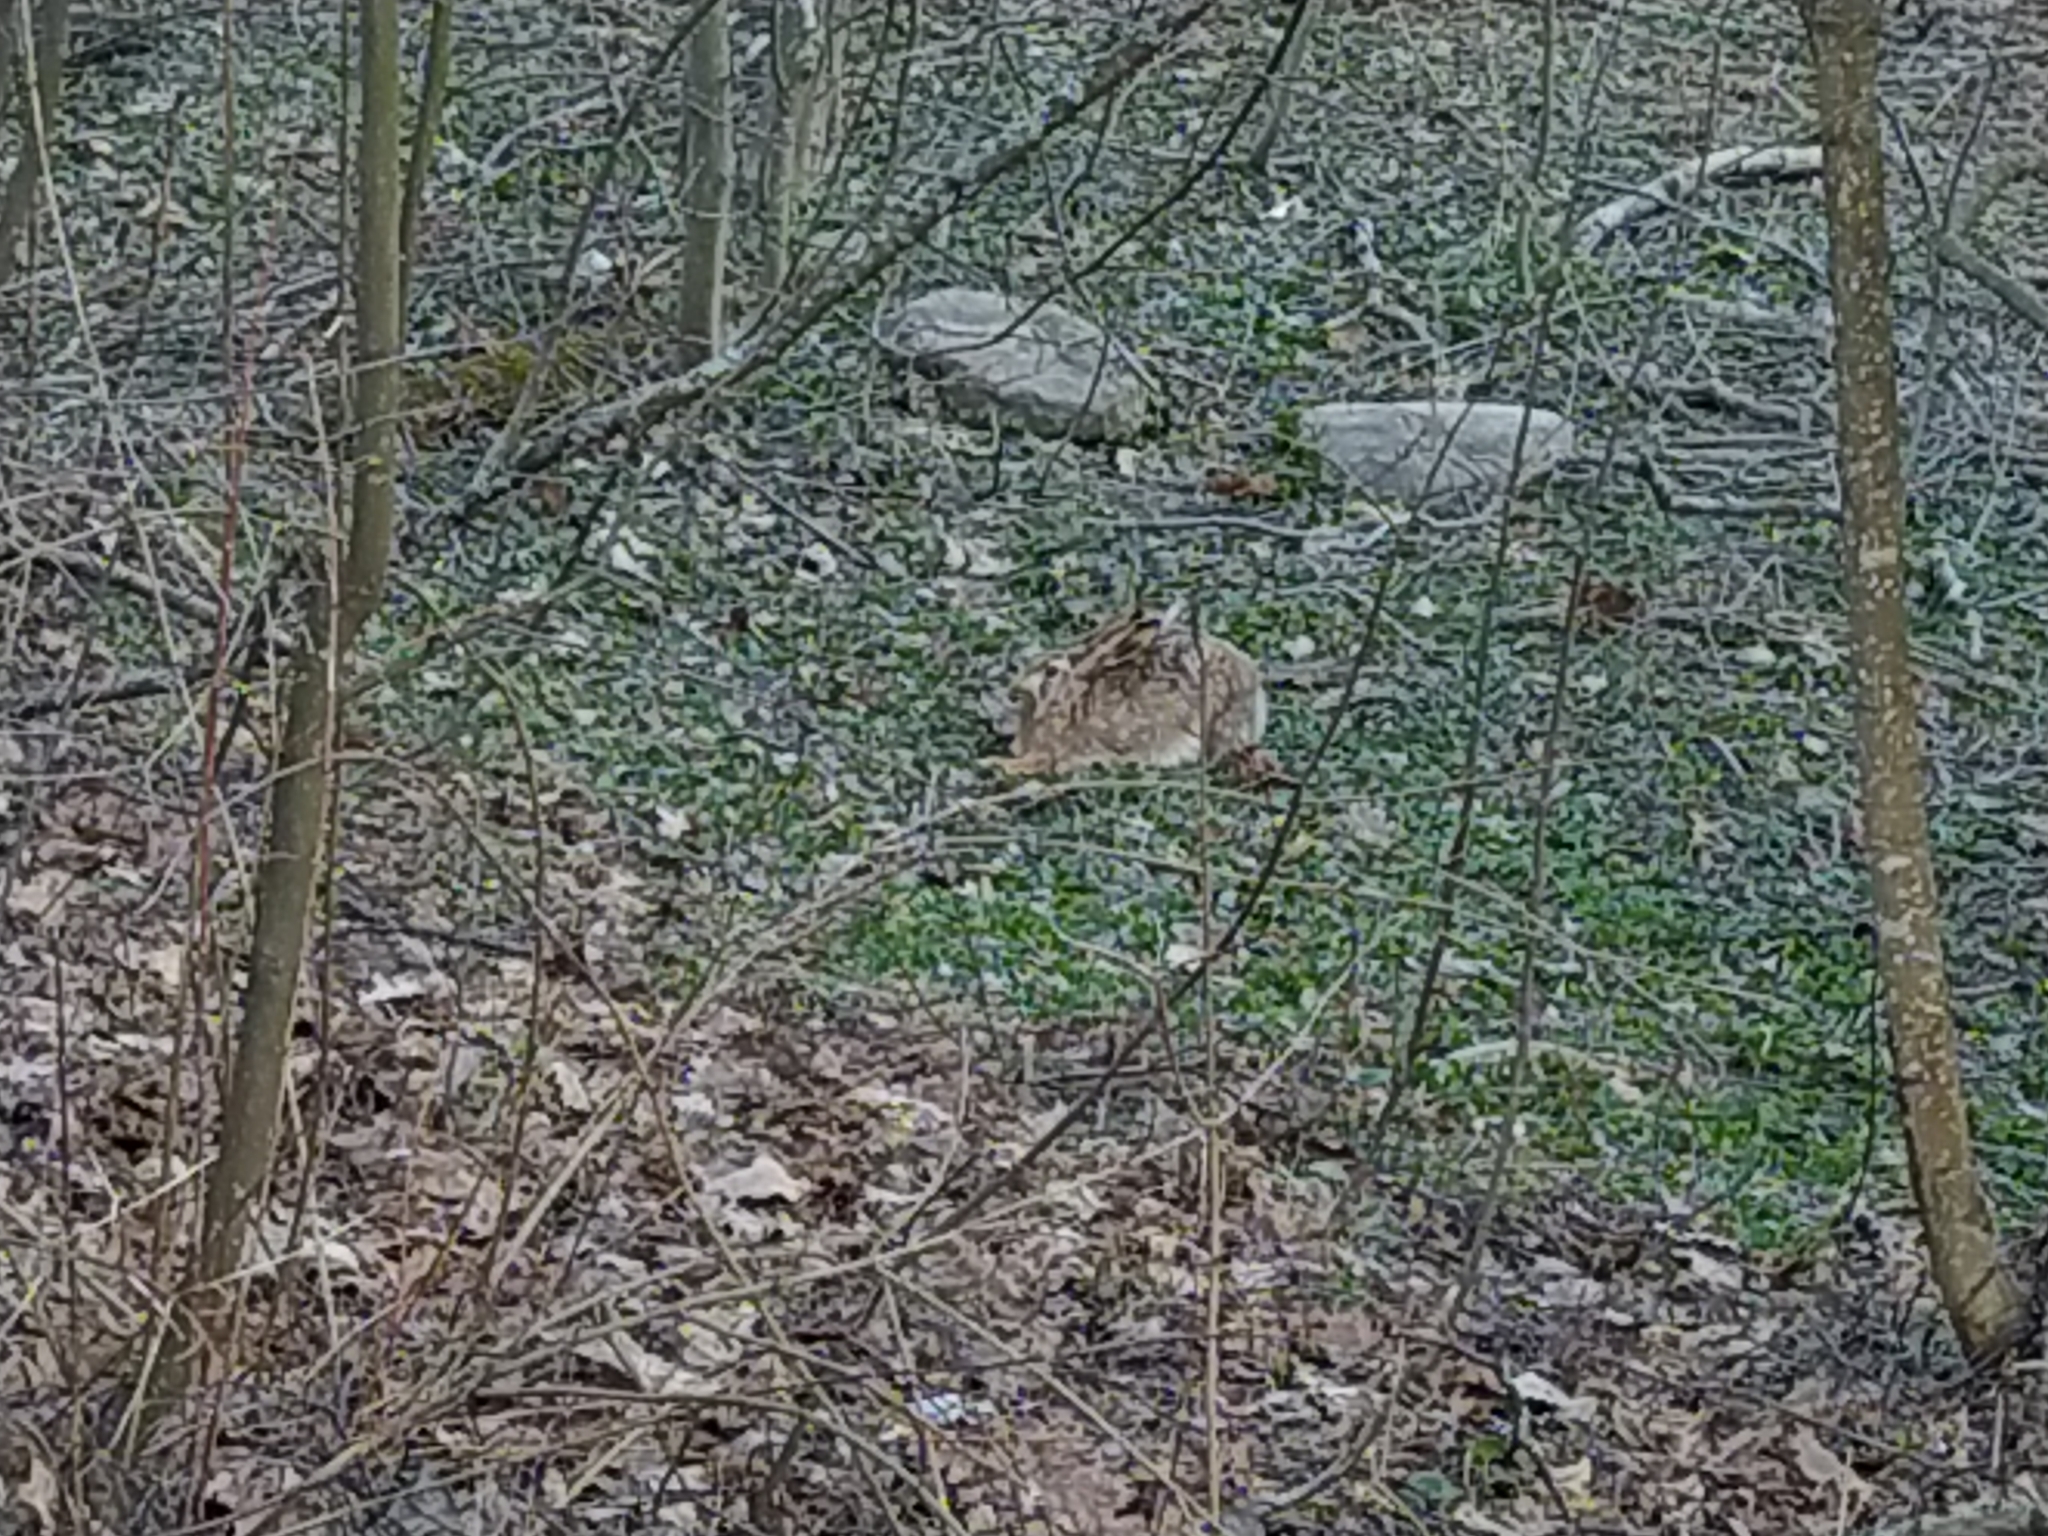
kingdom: Animalia
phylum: Chordata
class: Mammalia
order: Lagomorpha
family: Leporidae
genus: Lepus
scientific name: Lepus europaeus
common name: European hare
